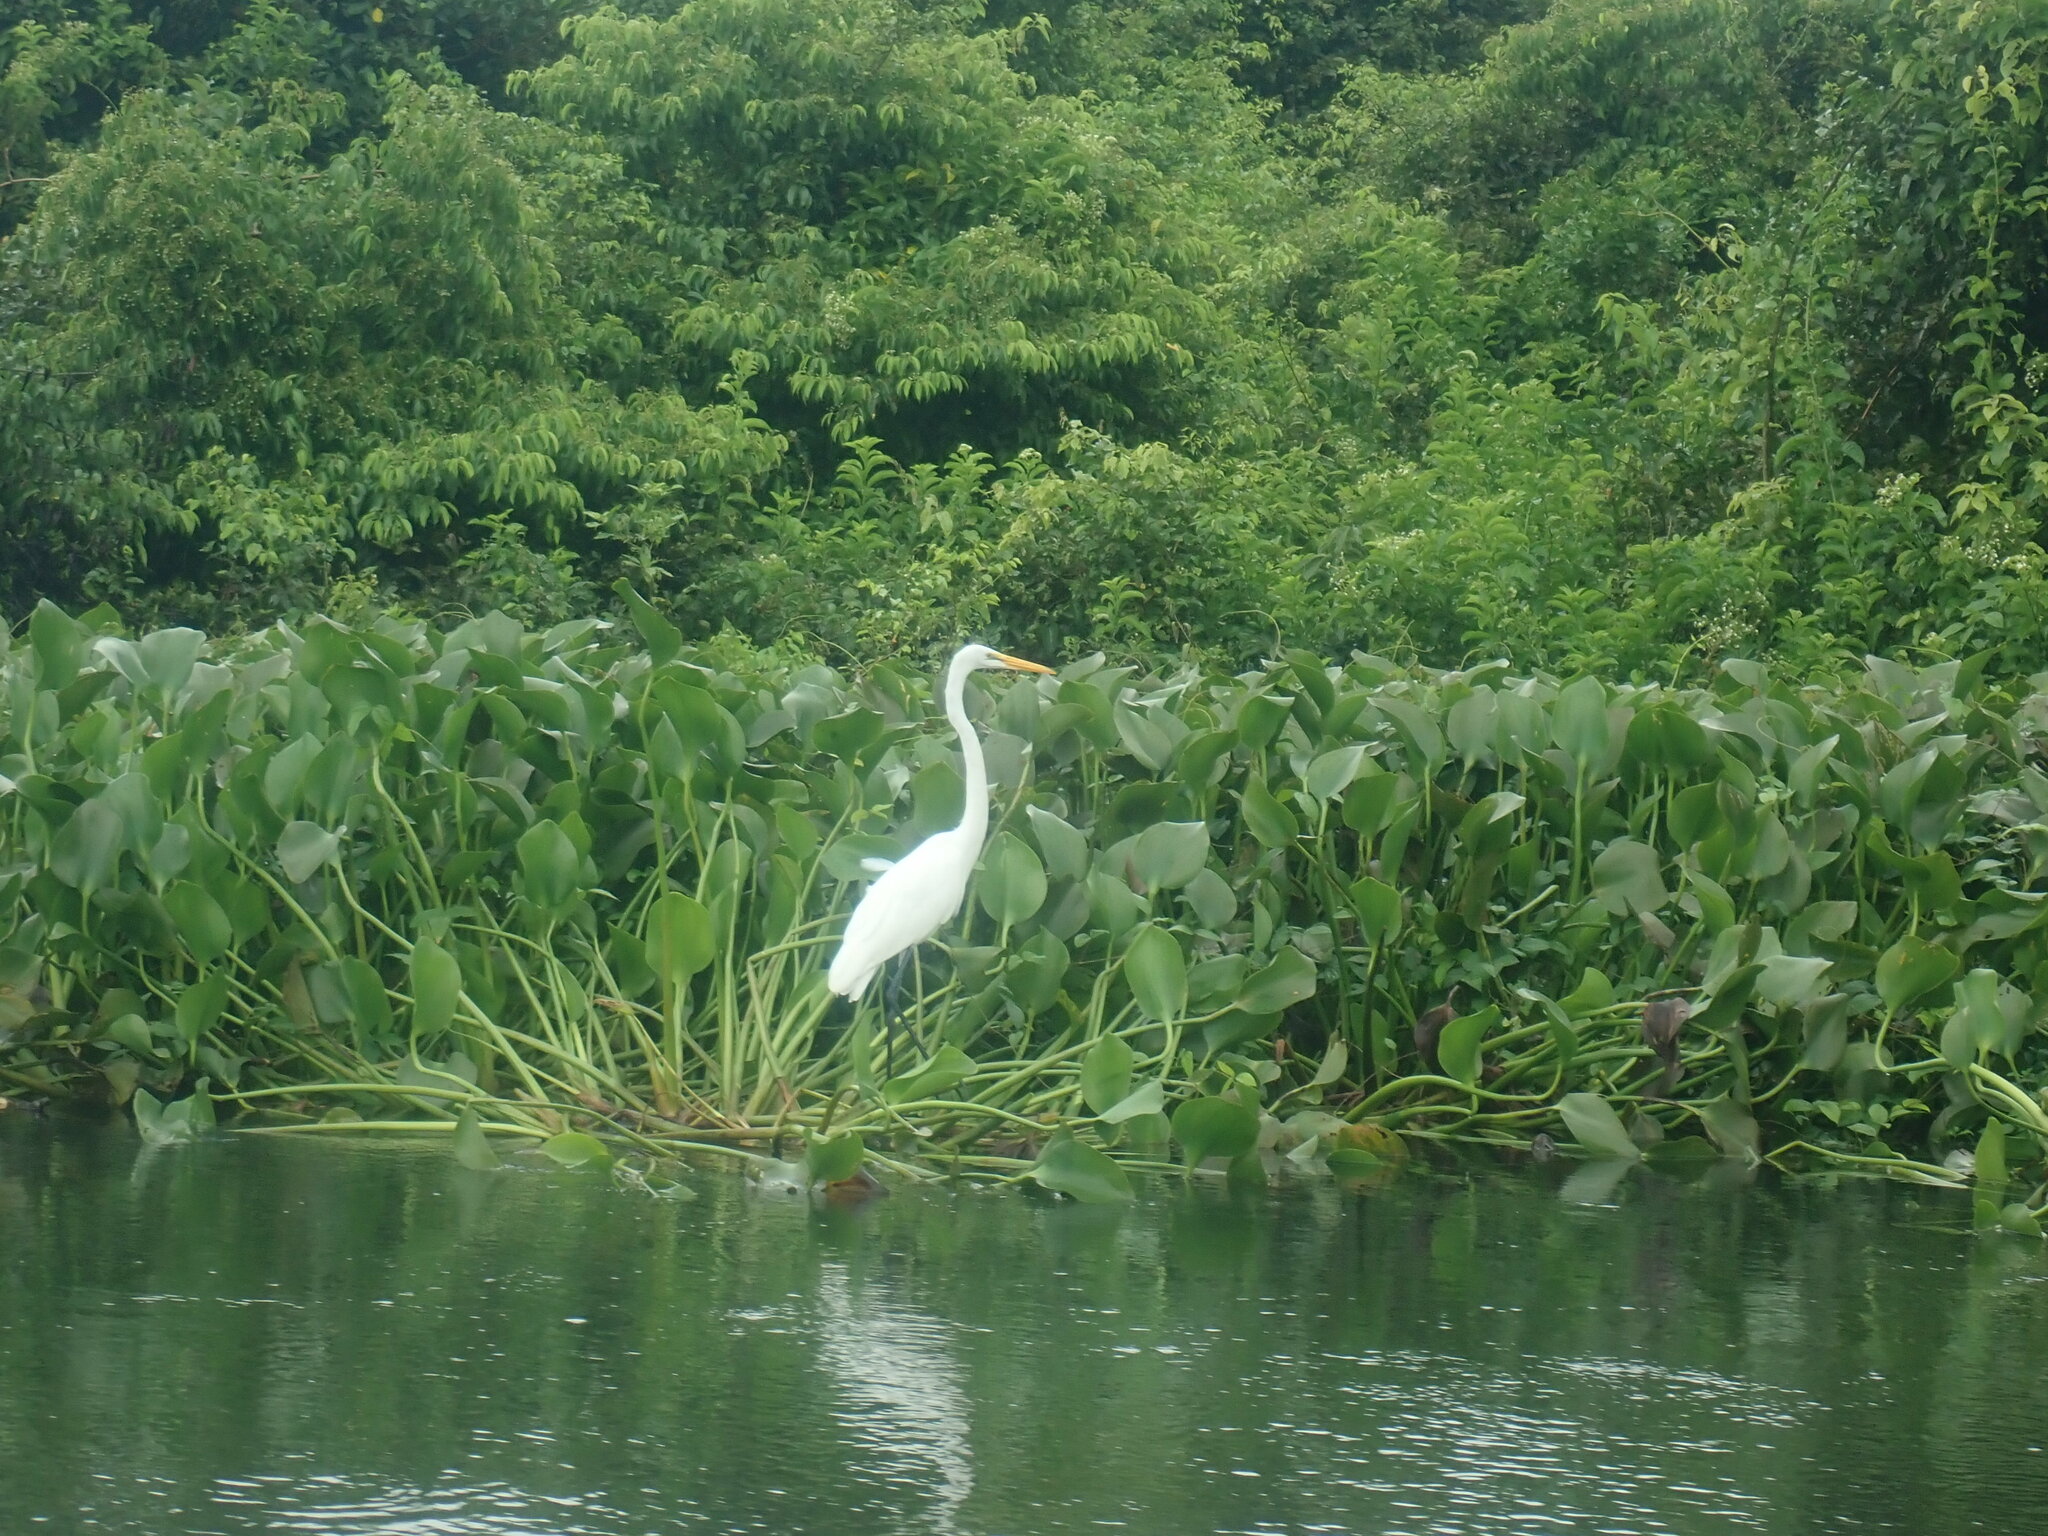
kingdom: Animalia
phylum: Chordata
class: Aves
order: Pelecaniformes
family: Ardeidae
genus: Ardea
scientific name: Ardea alba
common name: Great egret
